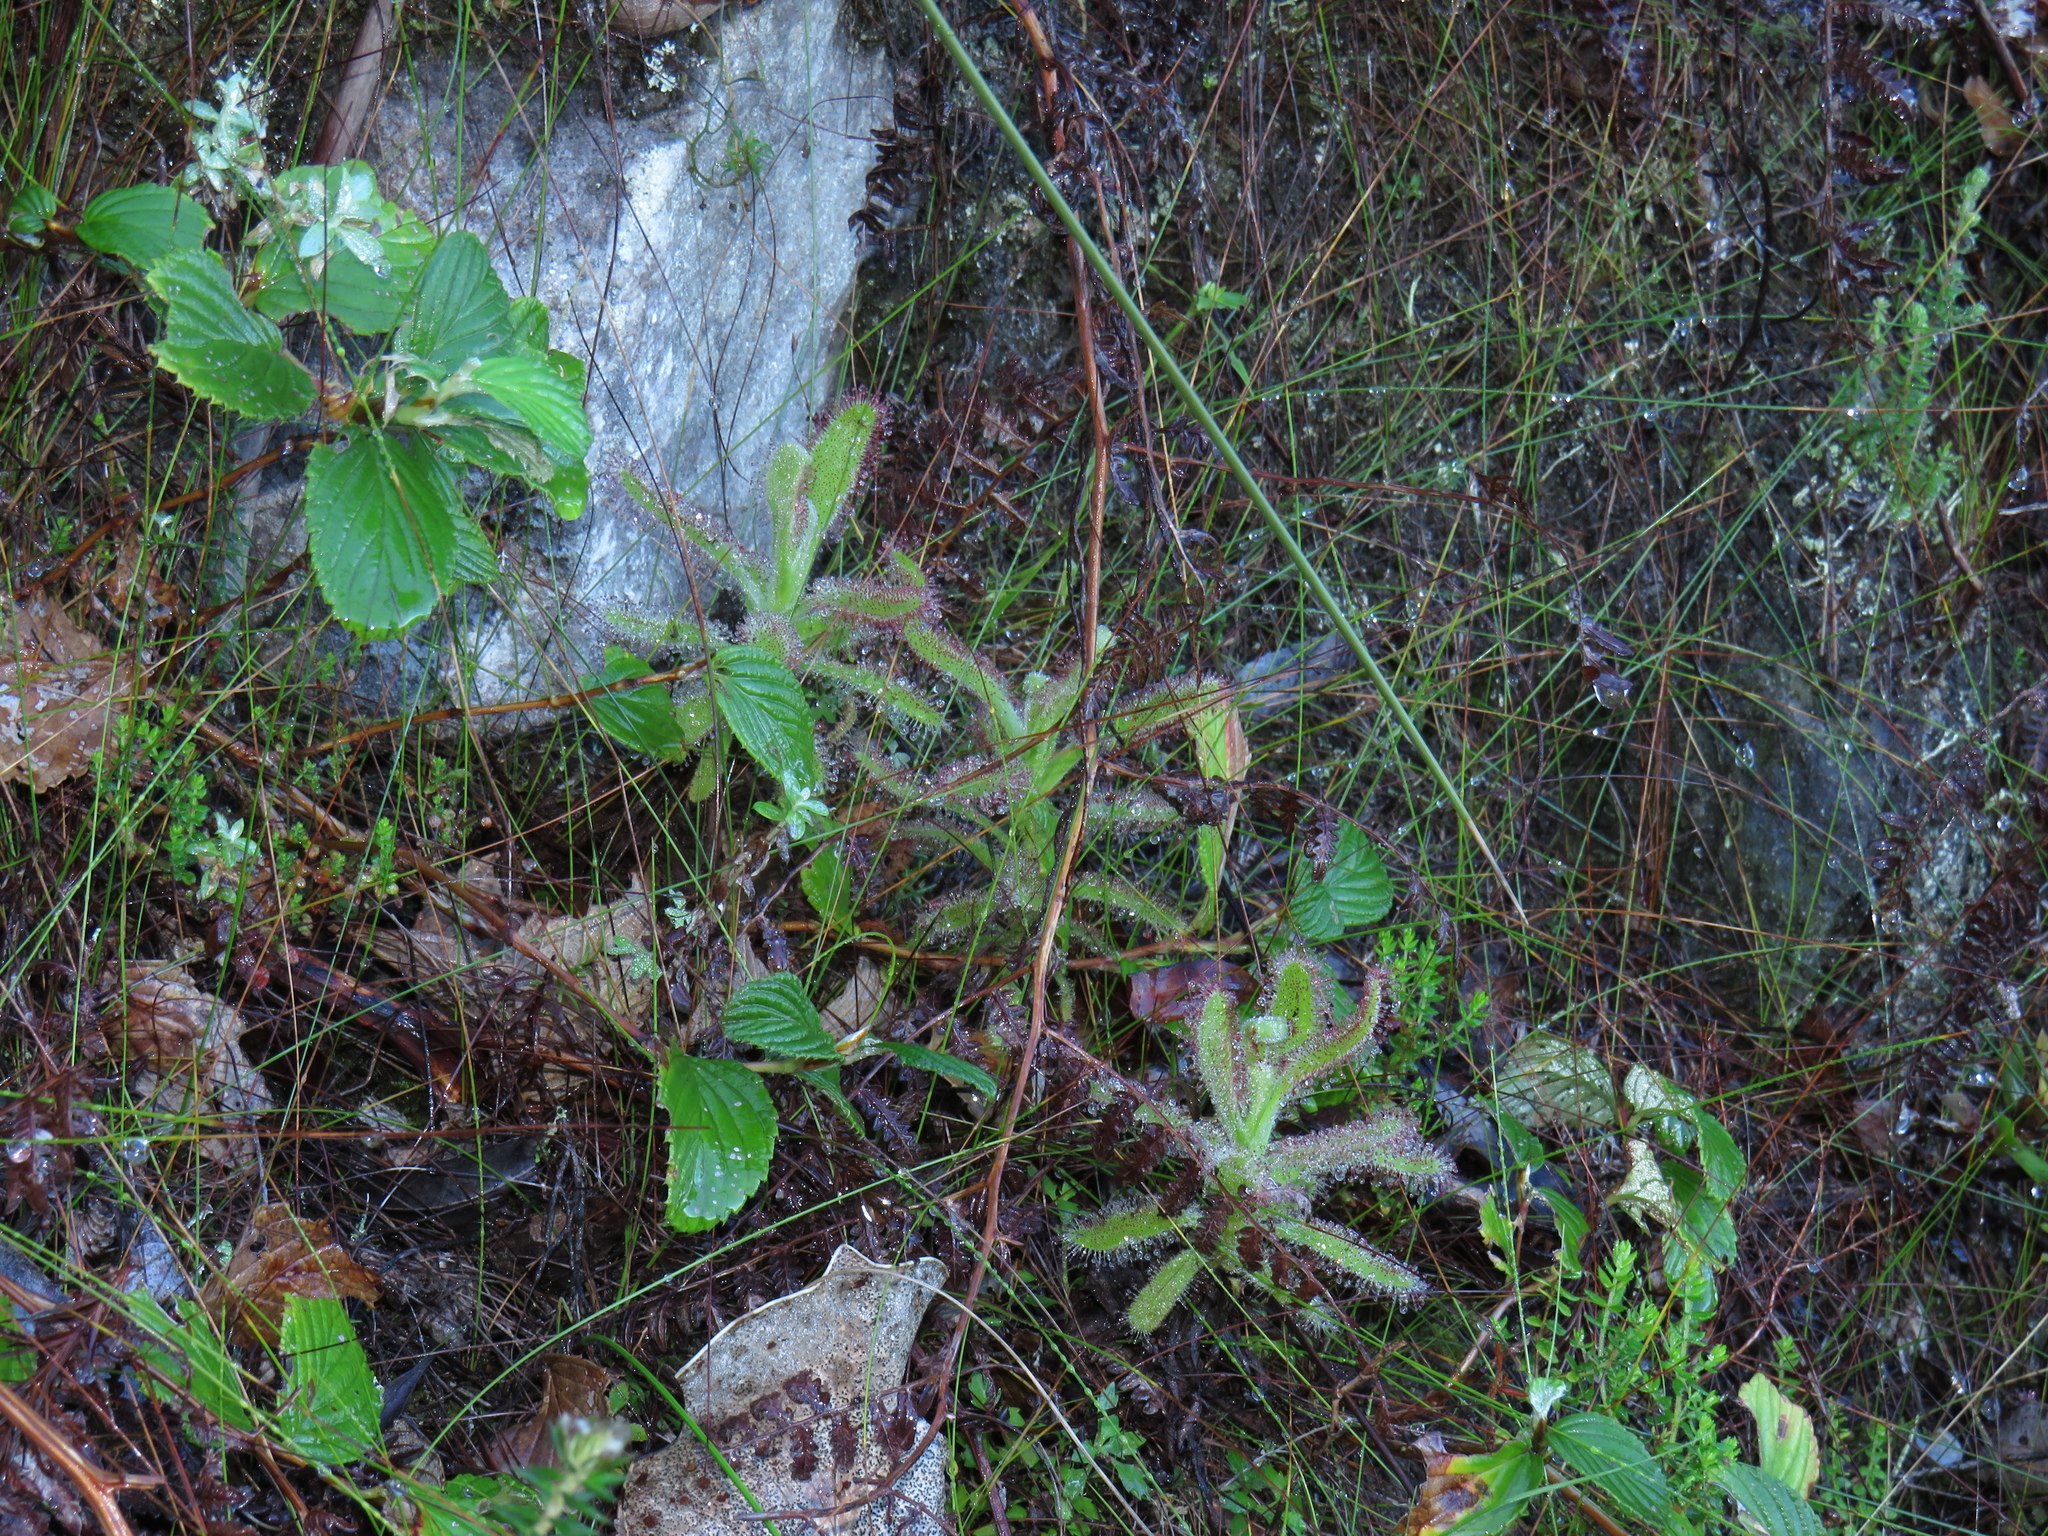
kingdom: Plantae
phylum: Tracheophyta
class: Magnoliopsida
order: Caryophyllales
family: Droseraceae
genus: Drosera
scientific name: Drosera hilaris
